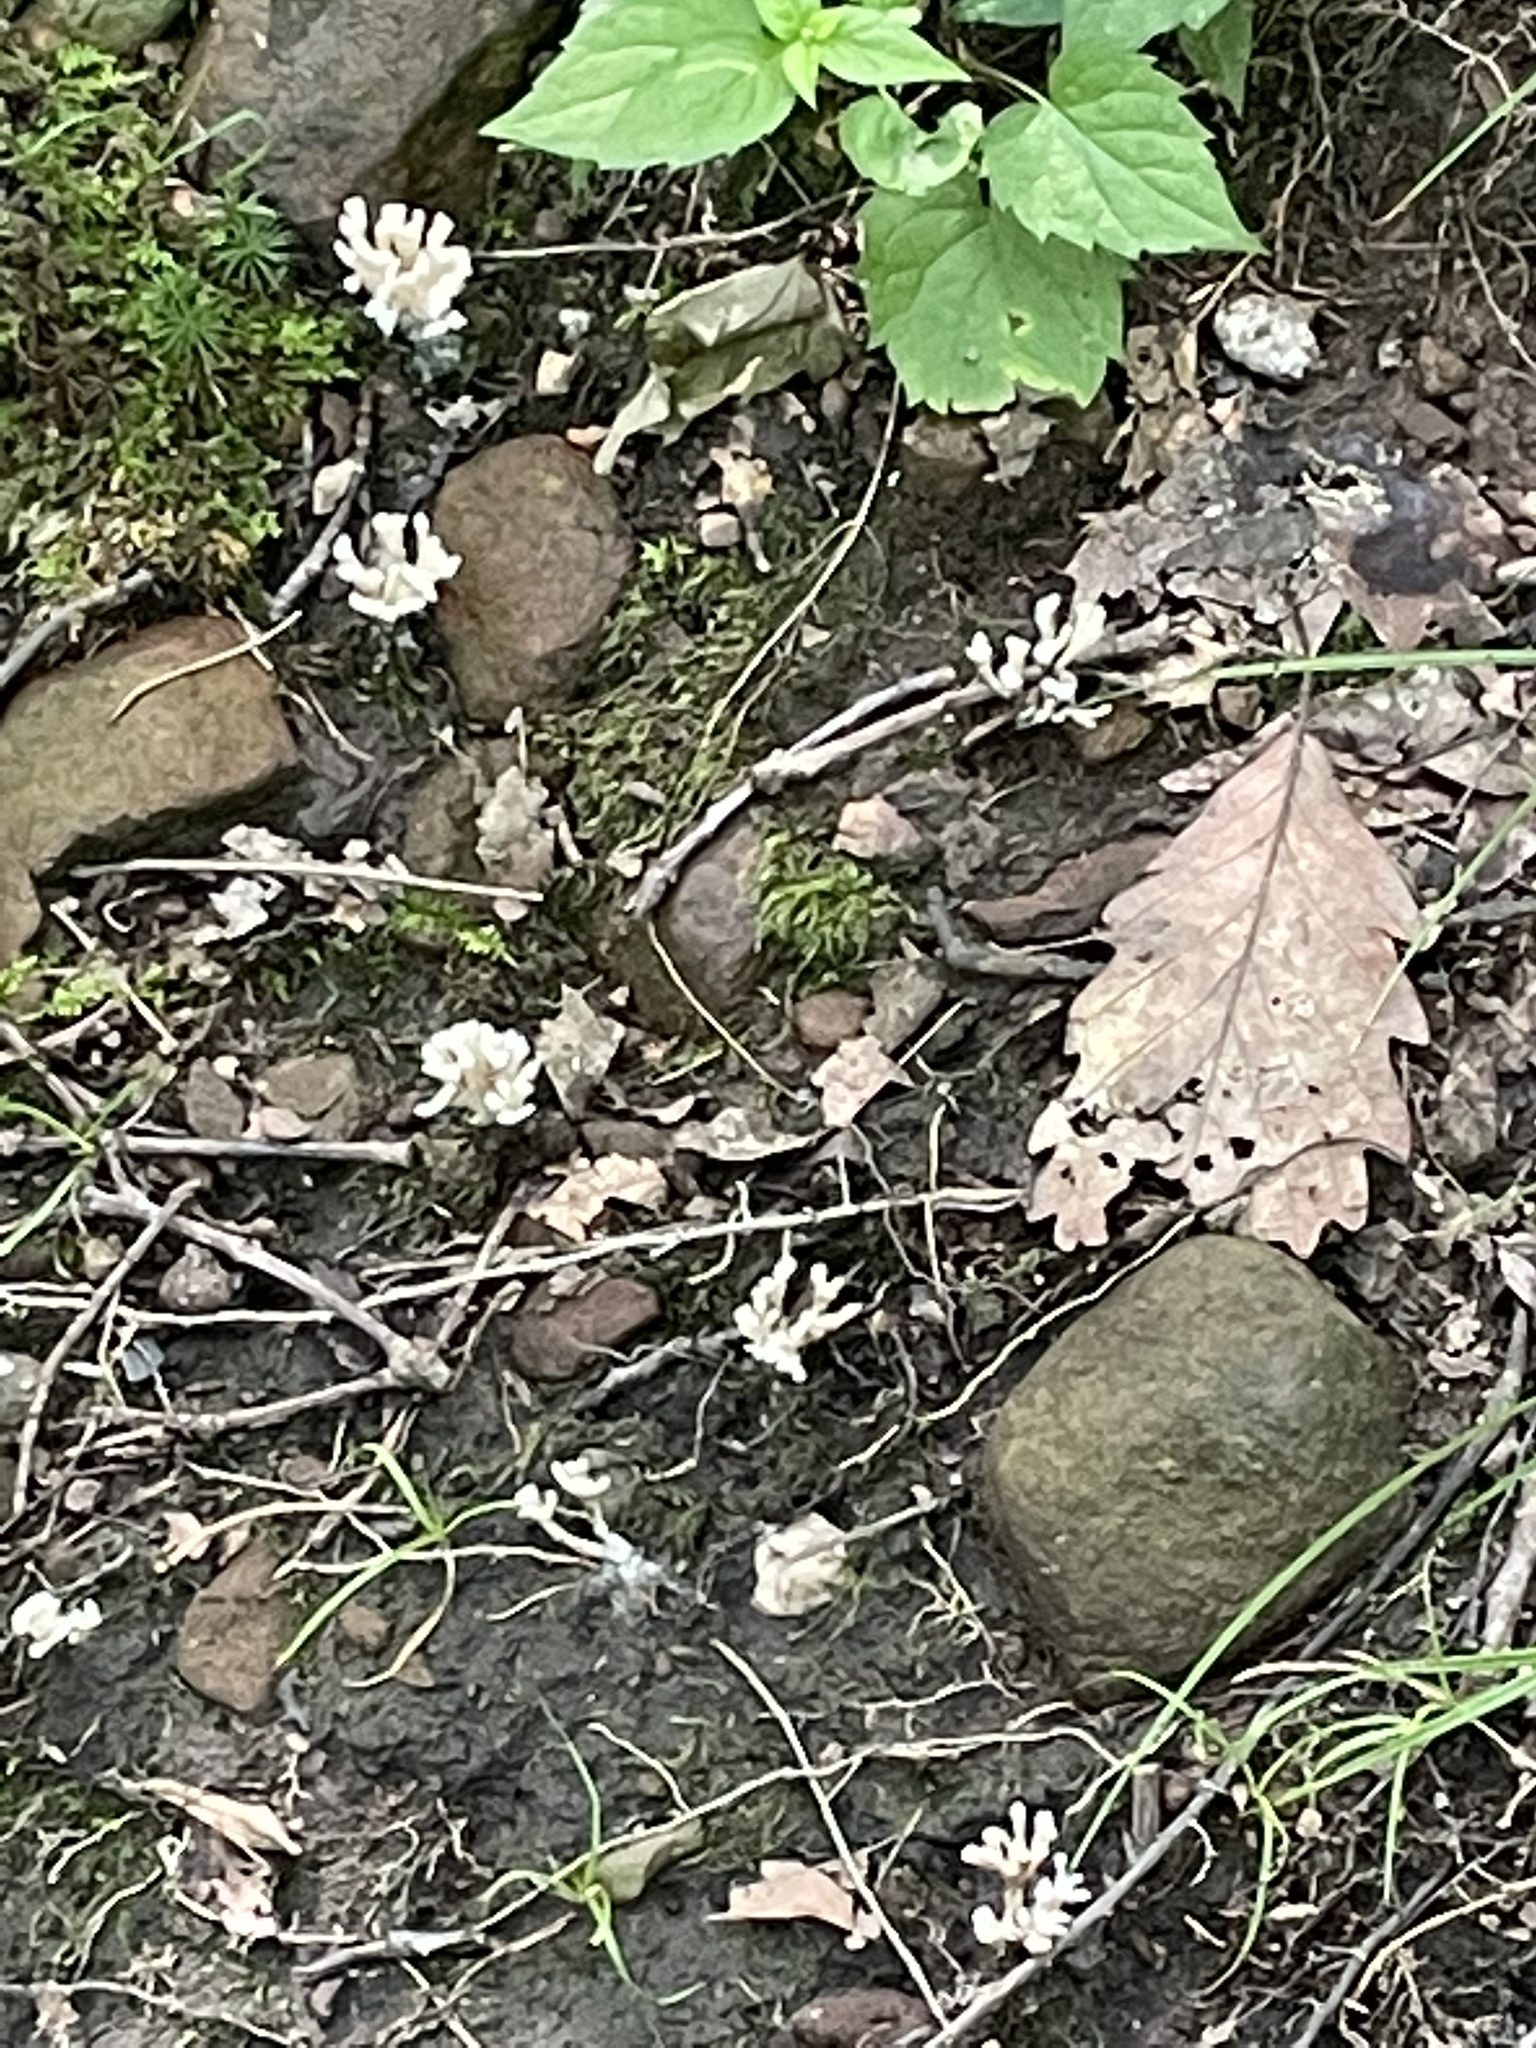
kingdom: Fungi
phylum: Basidiomycota
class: Agaricomycetes
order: Sebacinales
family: Sebacinaceae
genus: Sebacina
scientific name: Sebacina schweinitzii
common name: Jellied false coral fungus
